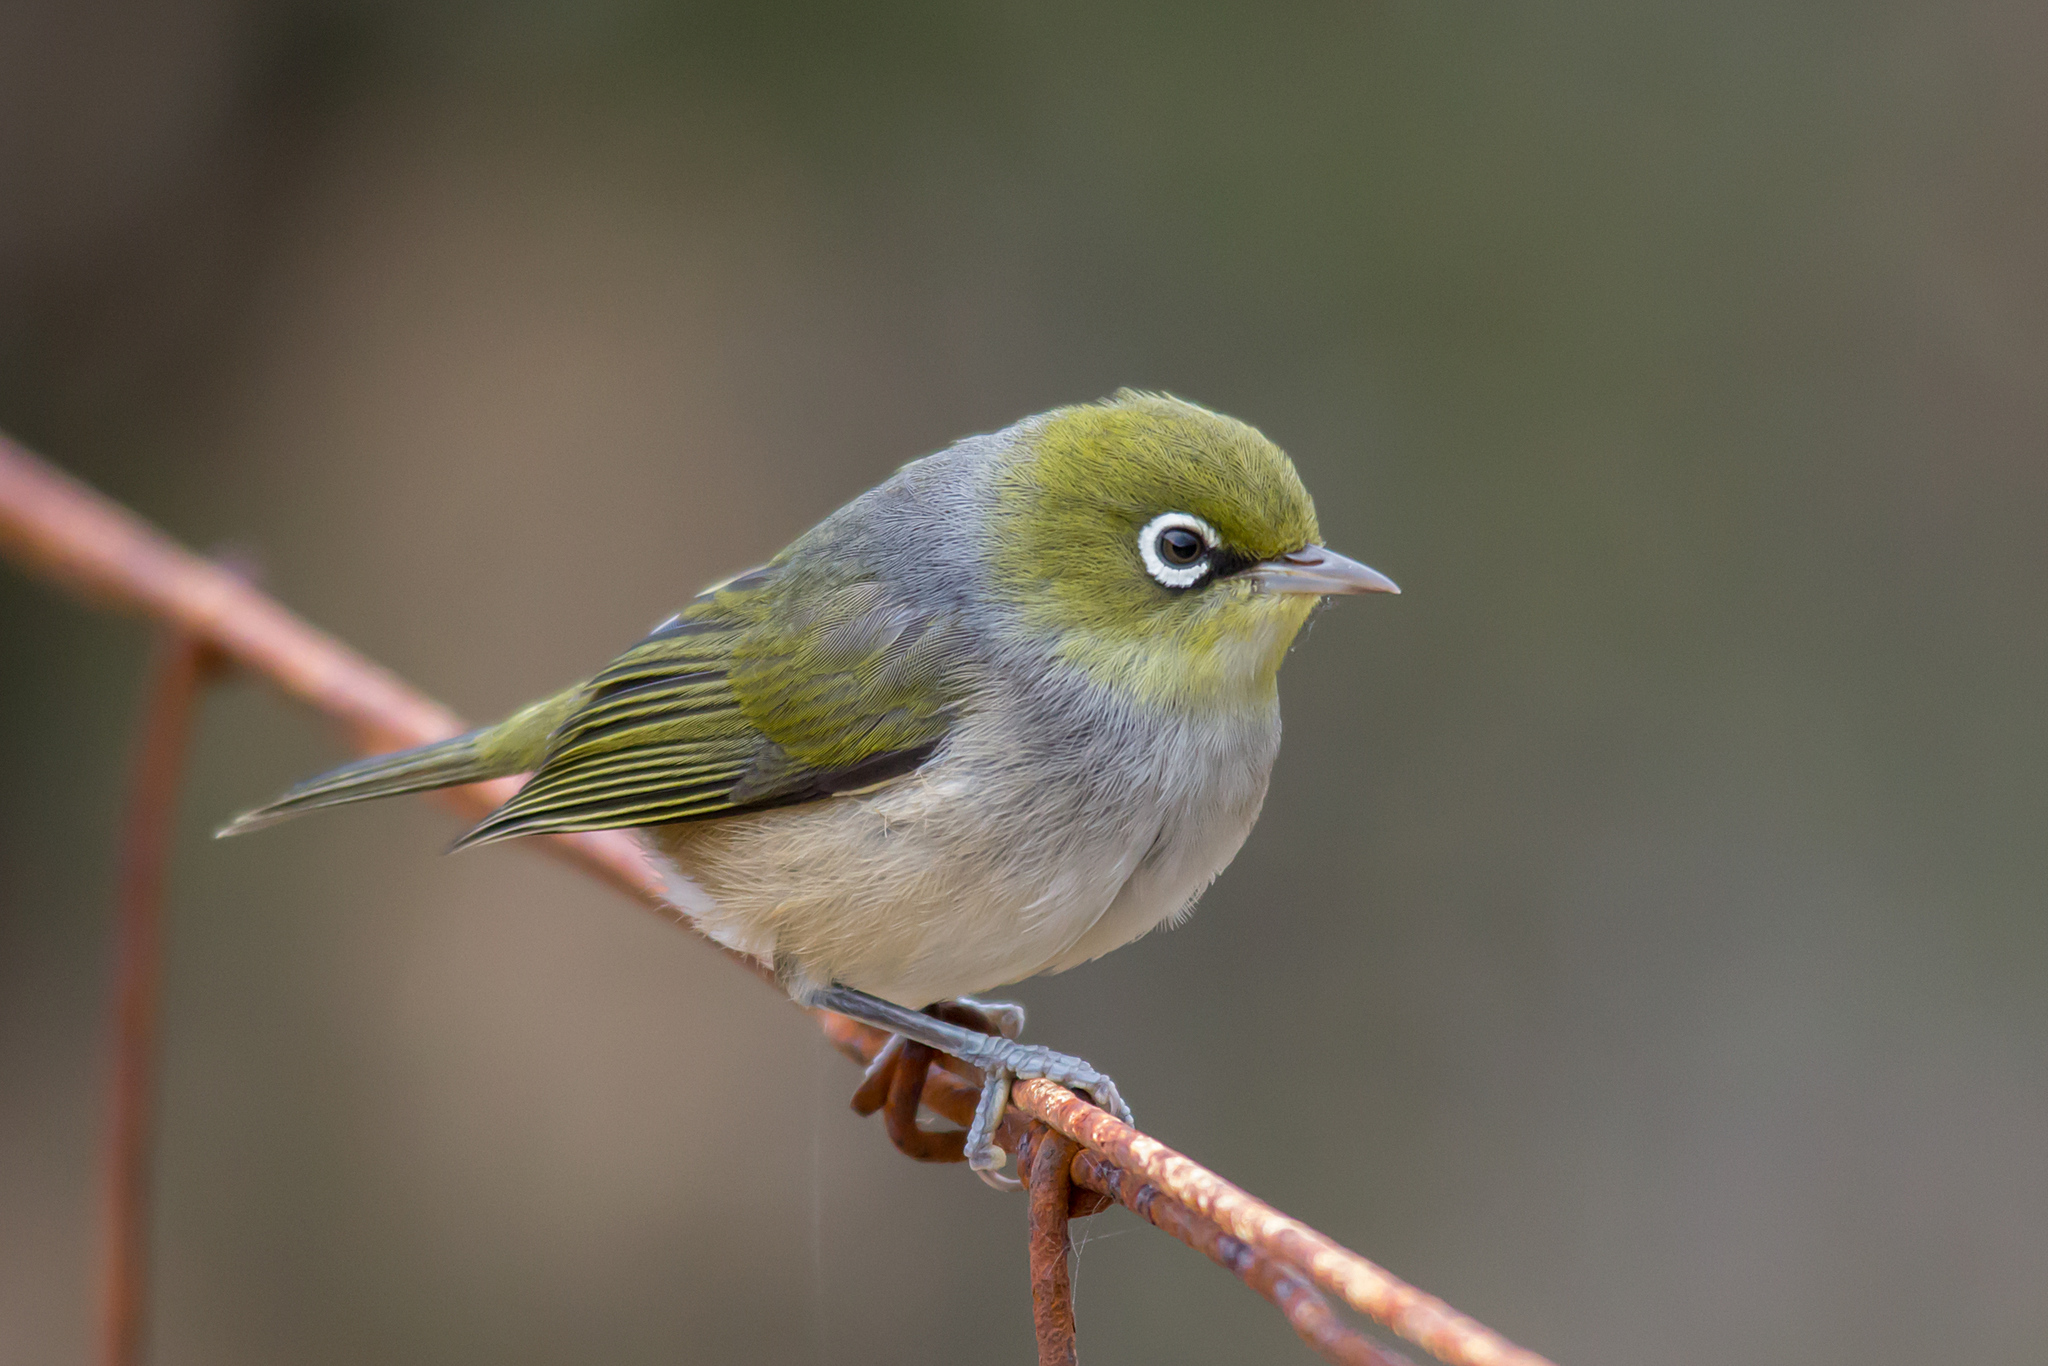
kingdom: Animalia
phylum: Chordata
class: Aves
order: Passeriformes
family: Zosteropidae
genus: Zosterops
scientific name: Zosterops lateralis
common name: Silvereye
